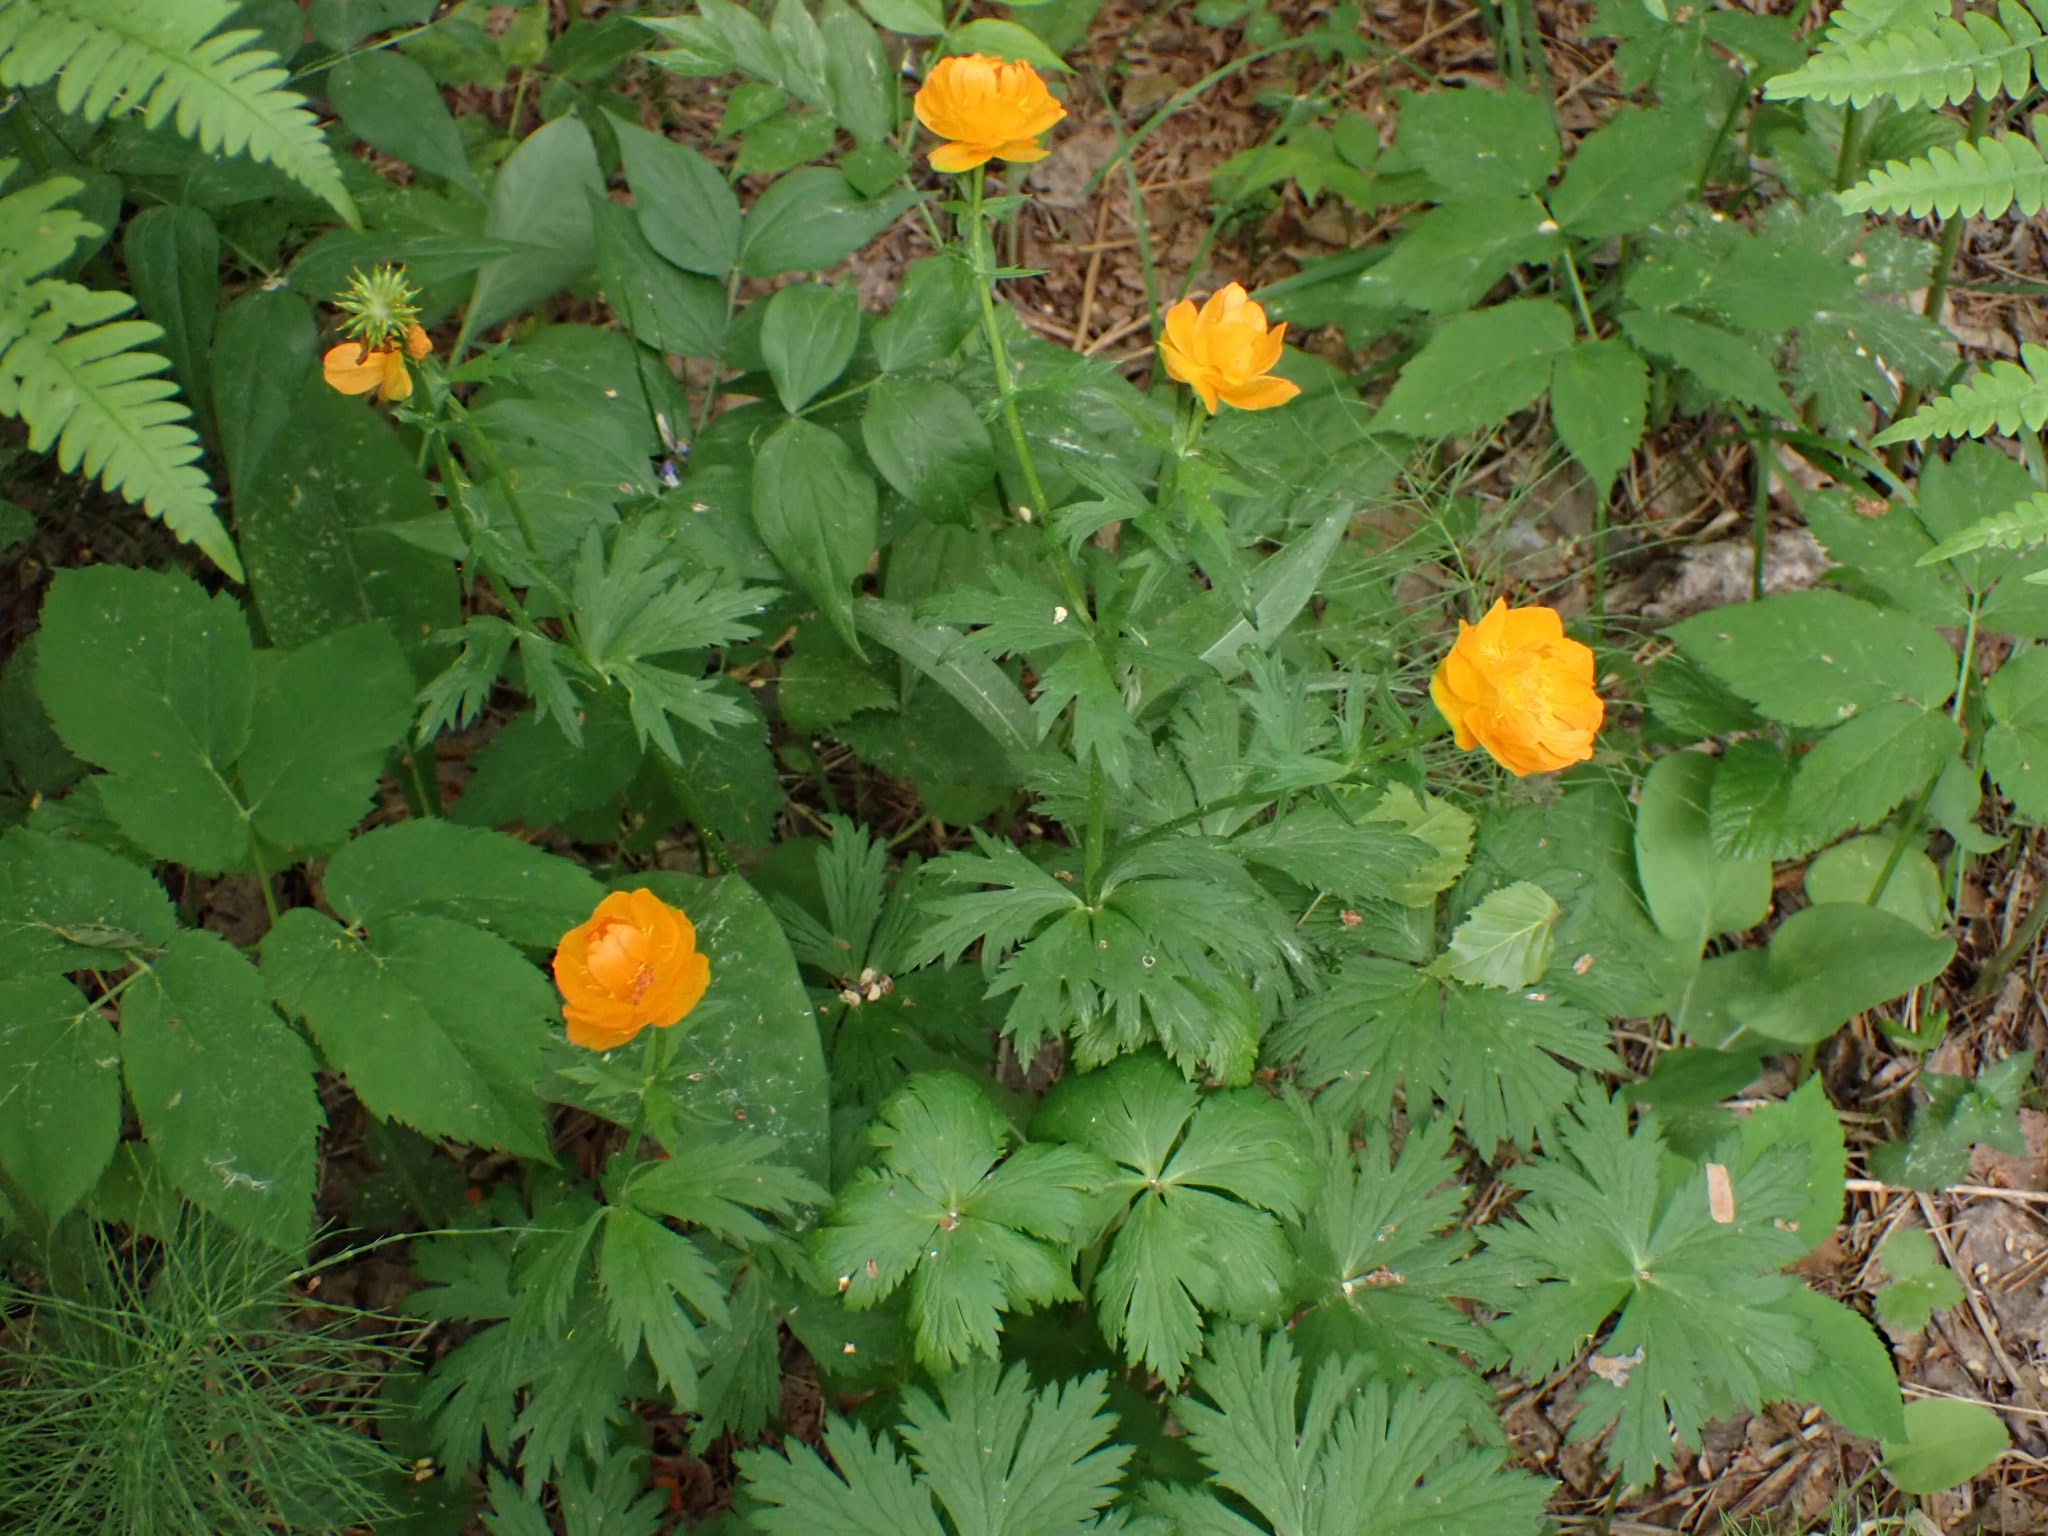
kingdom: Plantae
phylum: Tracheophyta
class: Magnoliopsida
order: Ranunculales
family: Ranunculaceae
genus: Trollius
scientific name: Trollius asiaticus
